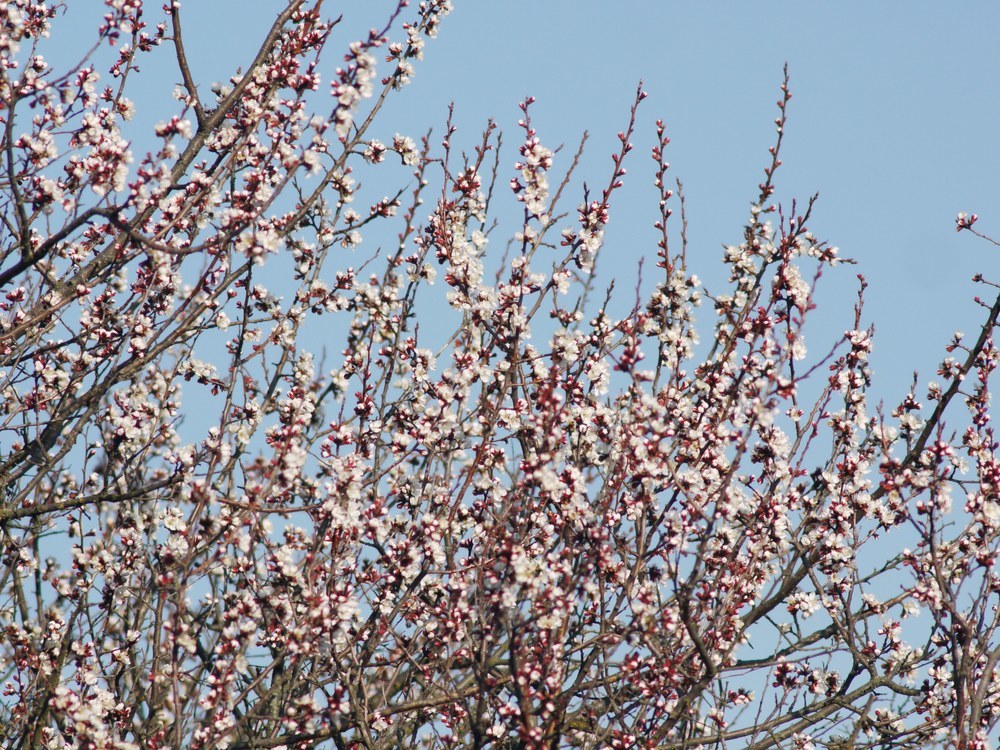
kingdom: Plantae
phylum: Tracheophyta
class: Magnoliopsida
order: Rosales
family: Rosaceae
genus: Prunus
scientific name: Prunus armeniaca
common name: Apricot
